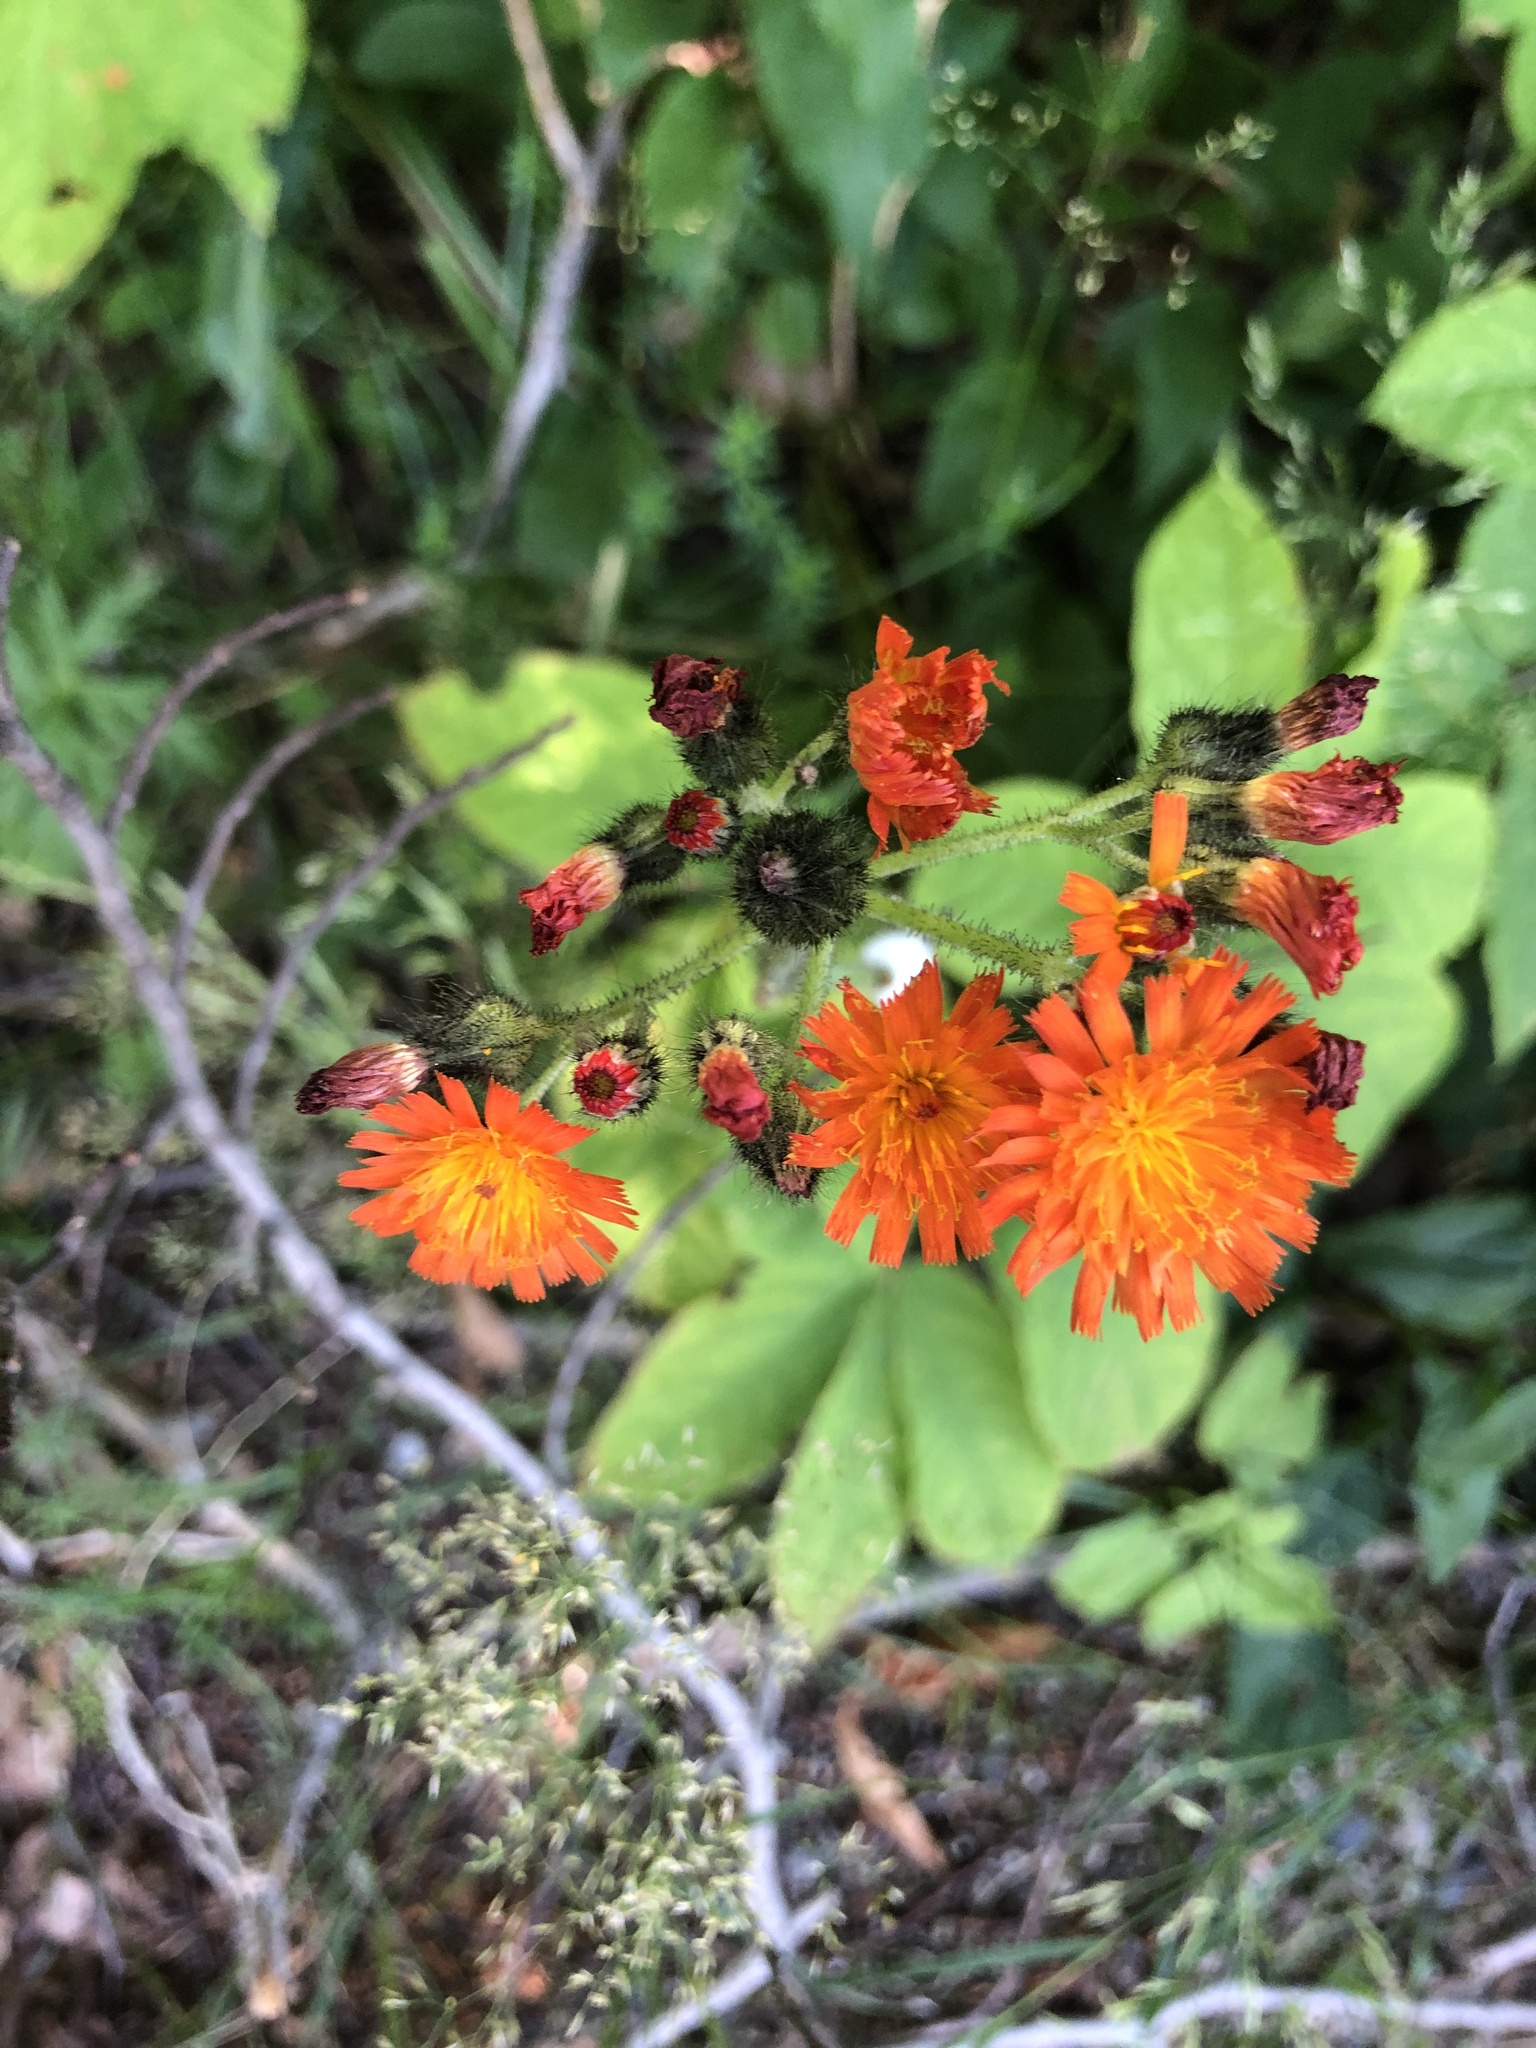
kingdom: Plantae
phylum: Tracheophyta
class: Magnoliopsida
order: Asterales
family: Asteraceae
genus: Pilosella
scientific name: Pilosella aurantiaca
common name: Fox-and-cubs
